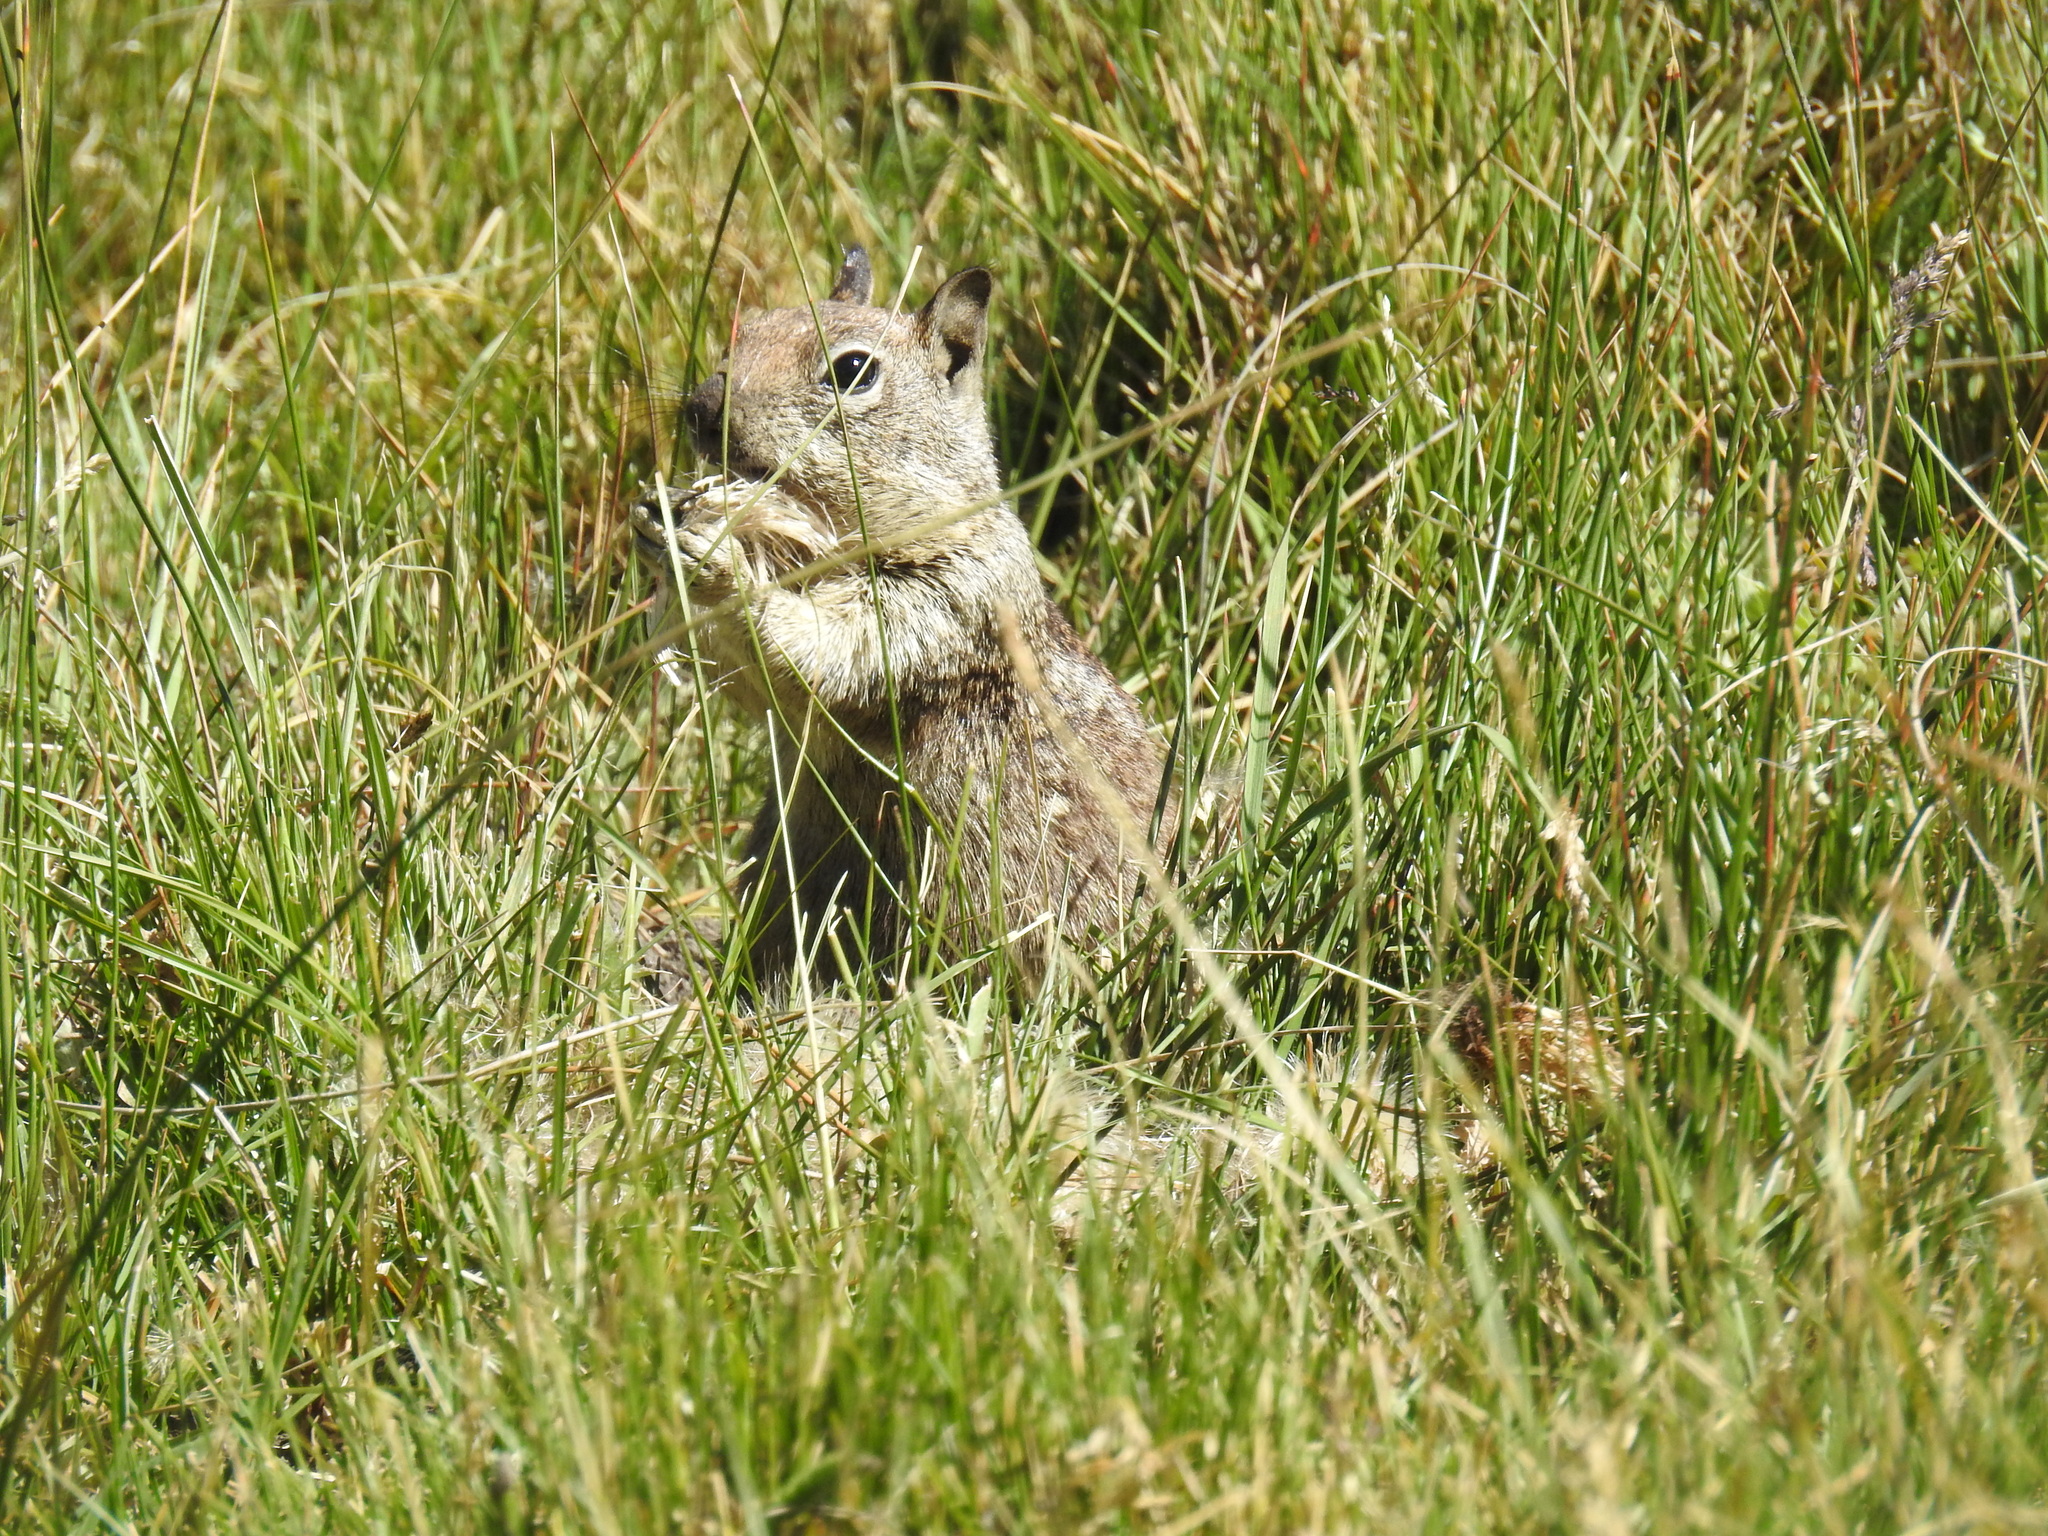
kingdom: Animalia
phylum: Chordata
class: Mammalia
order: Rodentia
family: Sciuridae
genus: Otospermophilus
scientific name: Otospermophilus beecheyi
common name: California ground squirrel
